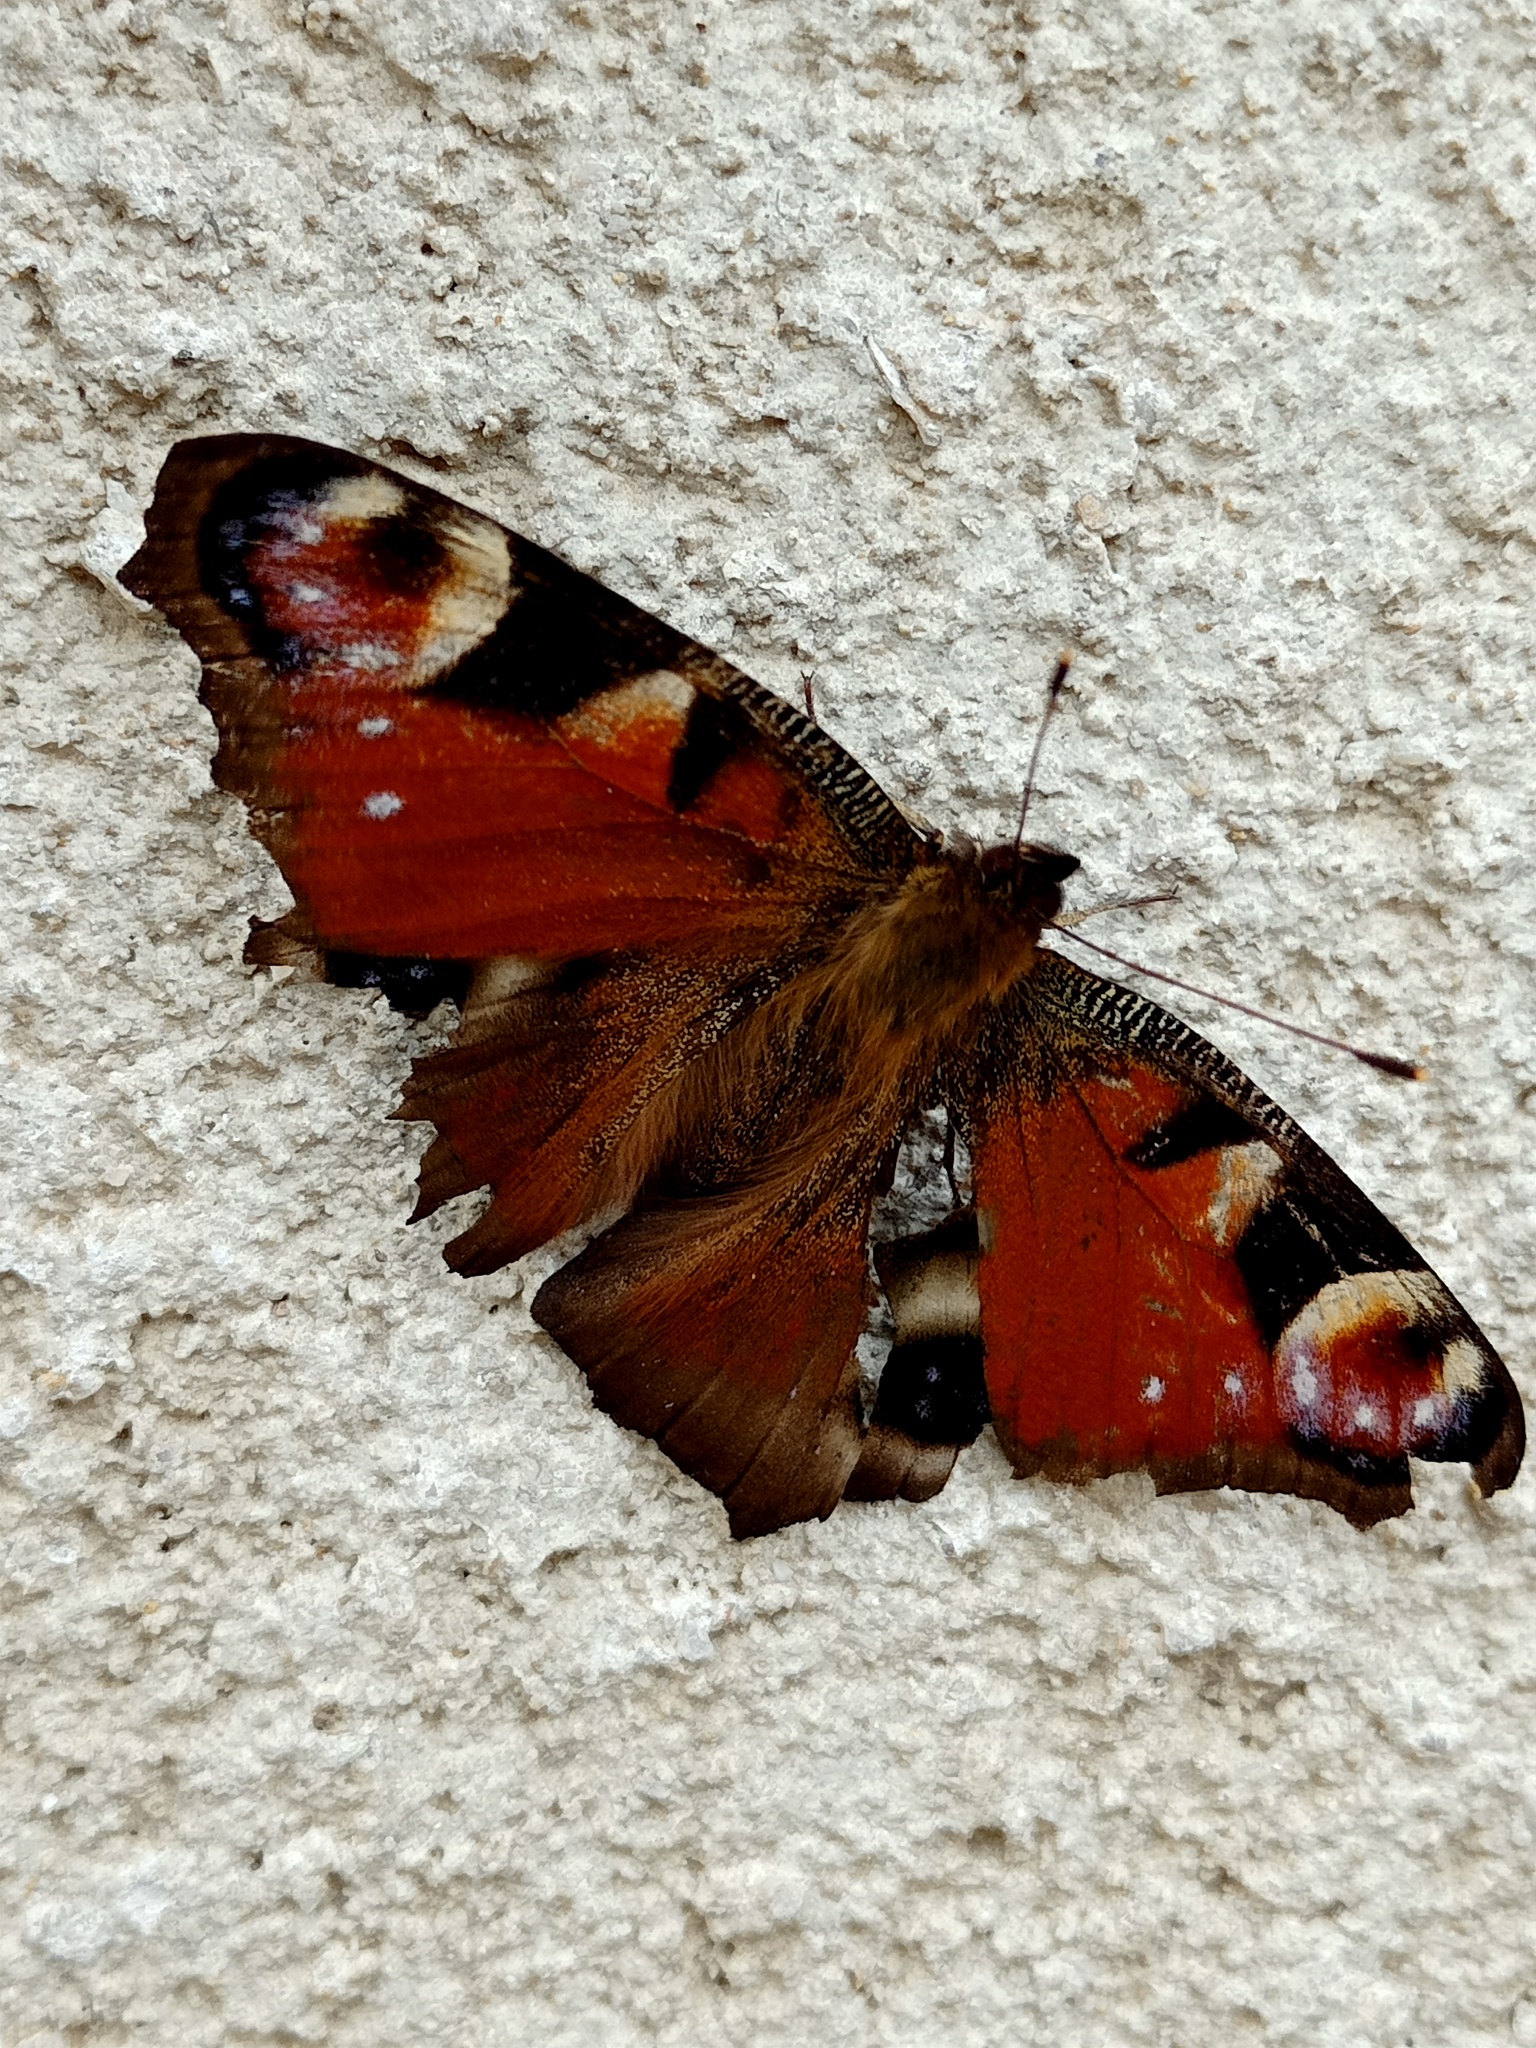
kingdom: Animalia
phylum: Arthropoda
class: Insecta
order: Lepidoptera
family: Nymphalidae
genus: Aglais
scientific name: Aglais io
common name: Peacock
